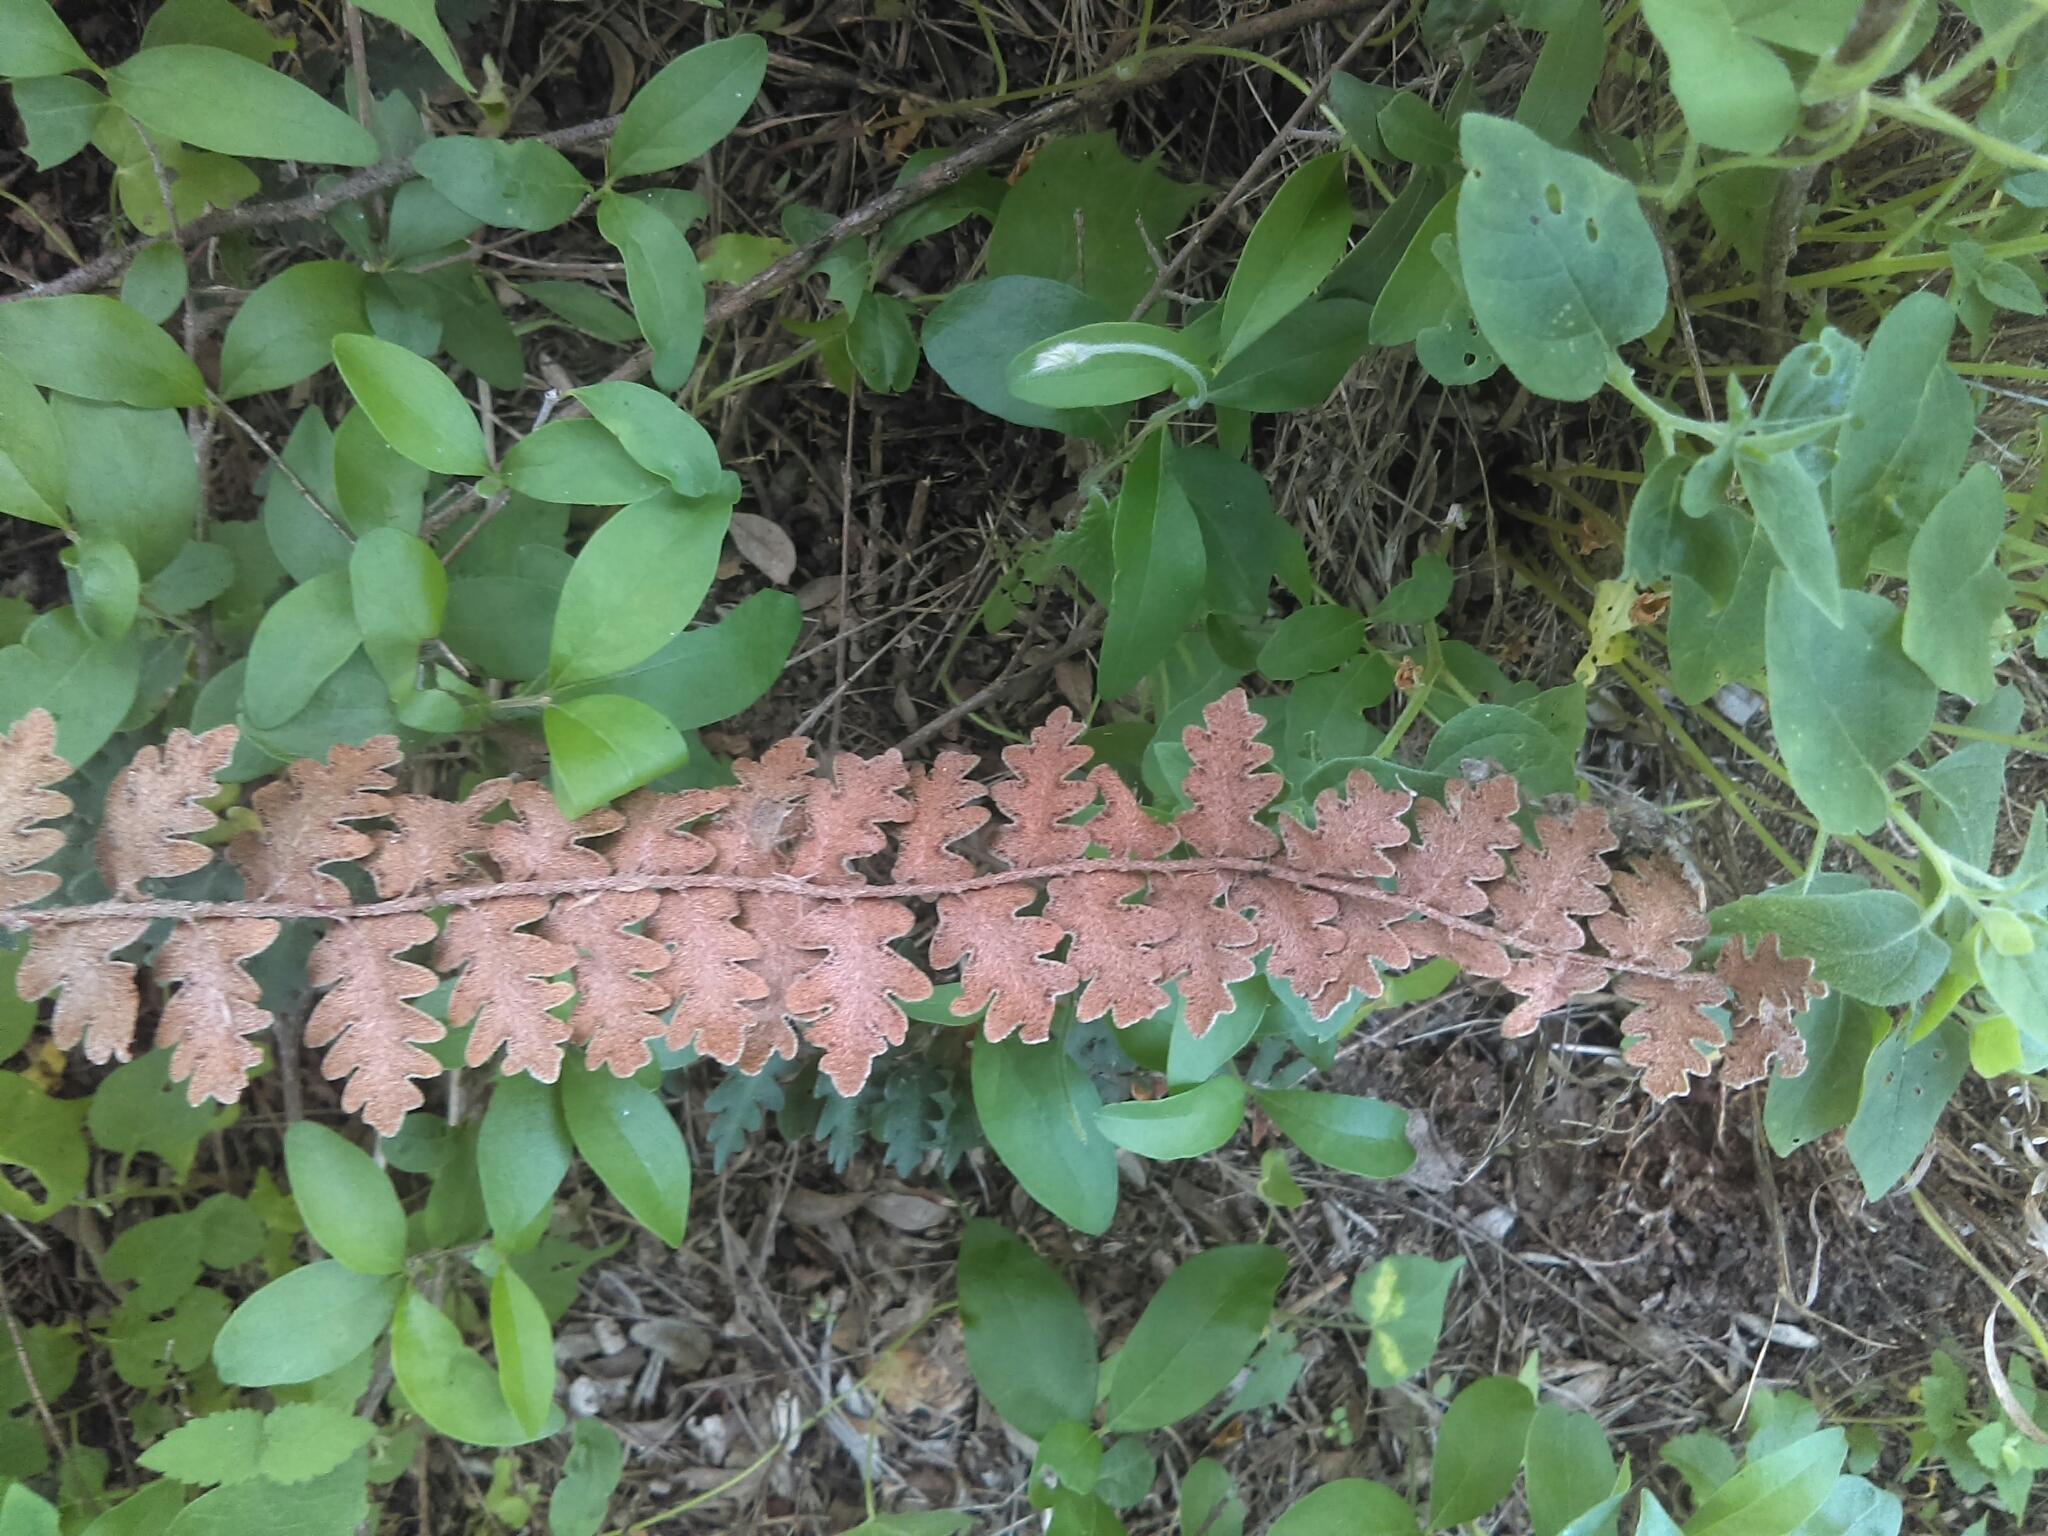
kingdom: Plantae
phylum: Tracheophyta
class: Polypodiopsida
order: Polypodiales
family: Pteridaceae
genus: Astrolepis
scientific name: Astrolepis sinuata
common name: Wavy scaly cloakfern
